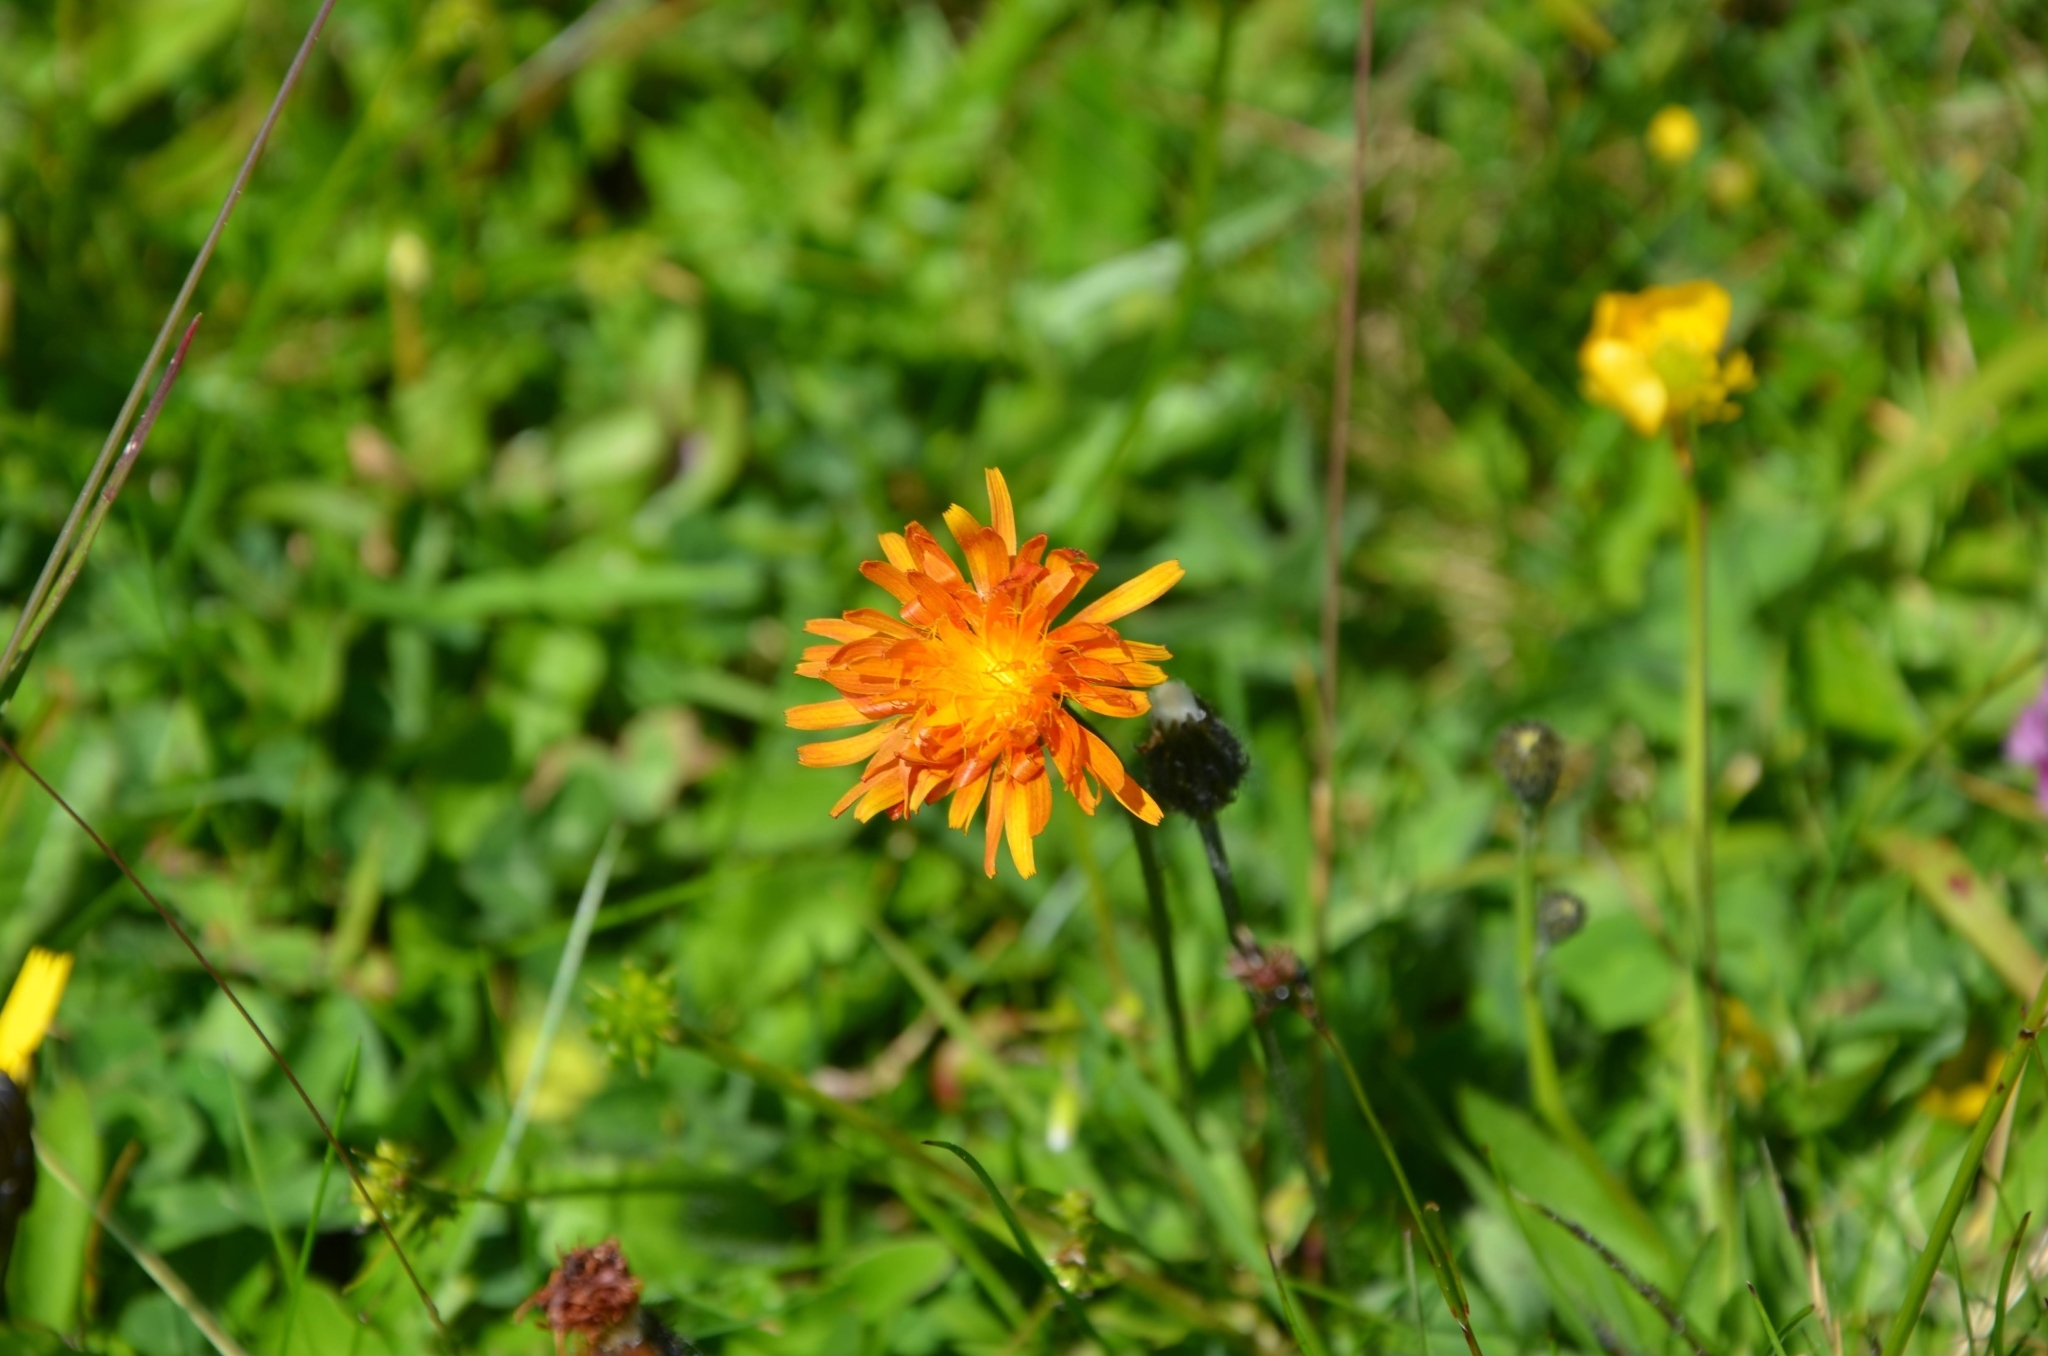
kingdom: Plantae
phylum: Tracheophyta
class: Magnoliopsida
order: Asterales
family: Asteraceae
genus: Crepis
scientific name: Crepis aurea
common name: Golden hawk's-beard
